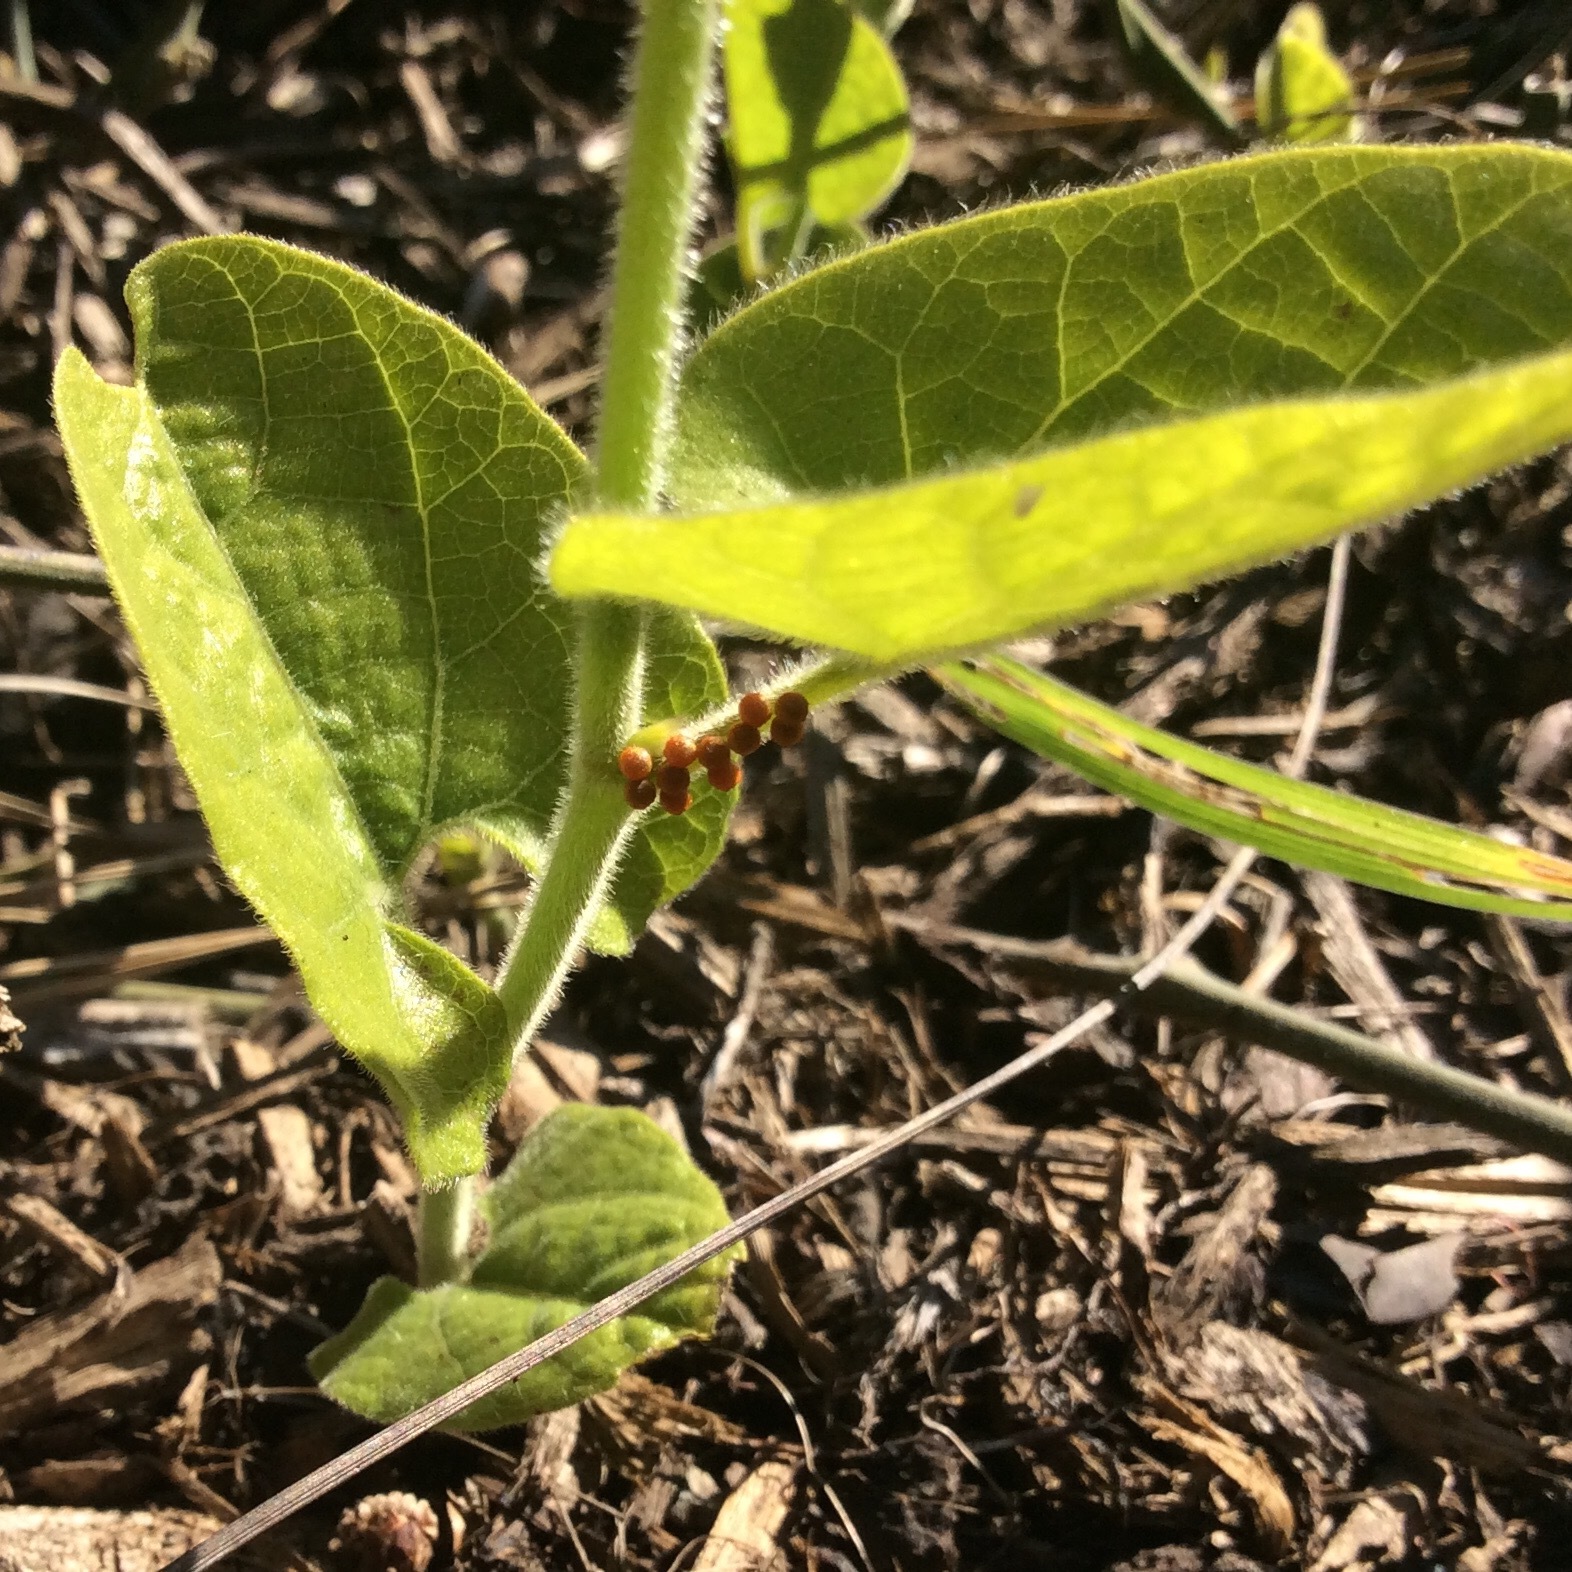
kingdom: Animalia
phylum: Arthropoda
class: Insecta
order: Lepidoptera
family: Papilionidae
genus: Battus
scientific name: Battus philenor
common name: Pipevine swallowtail
